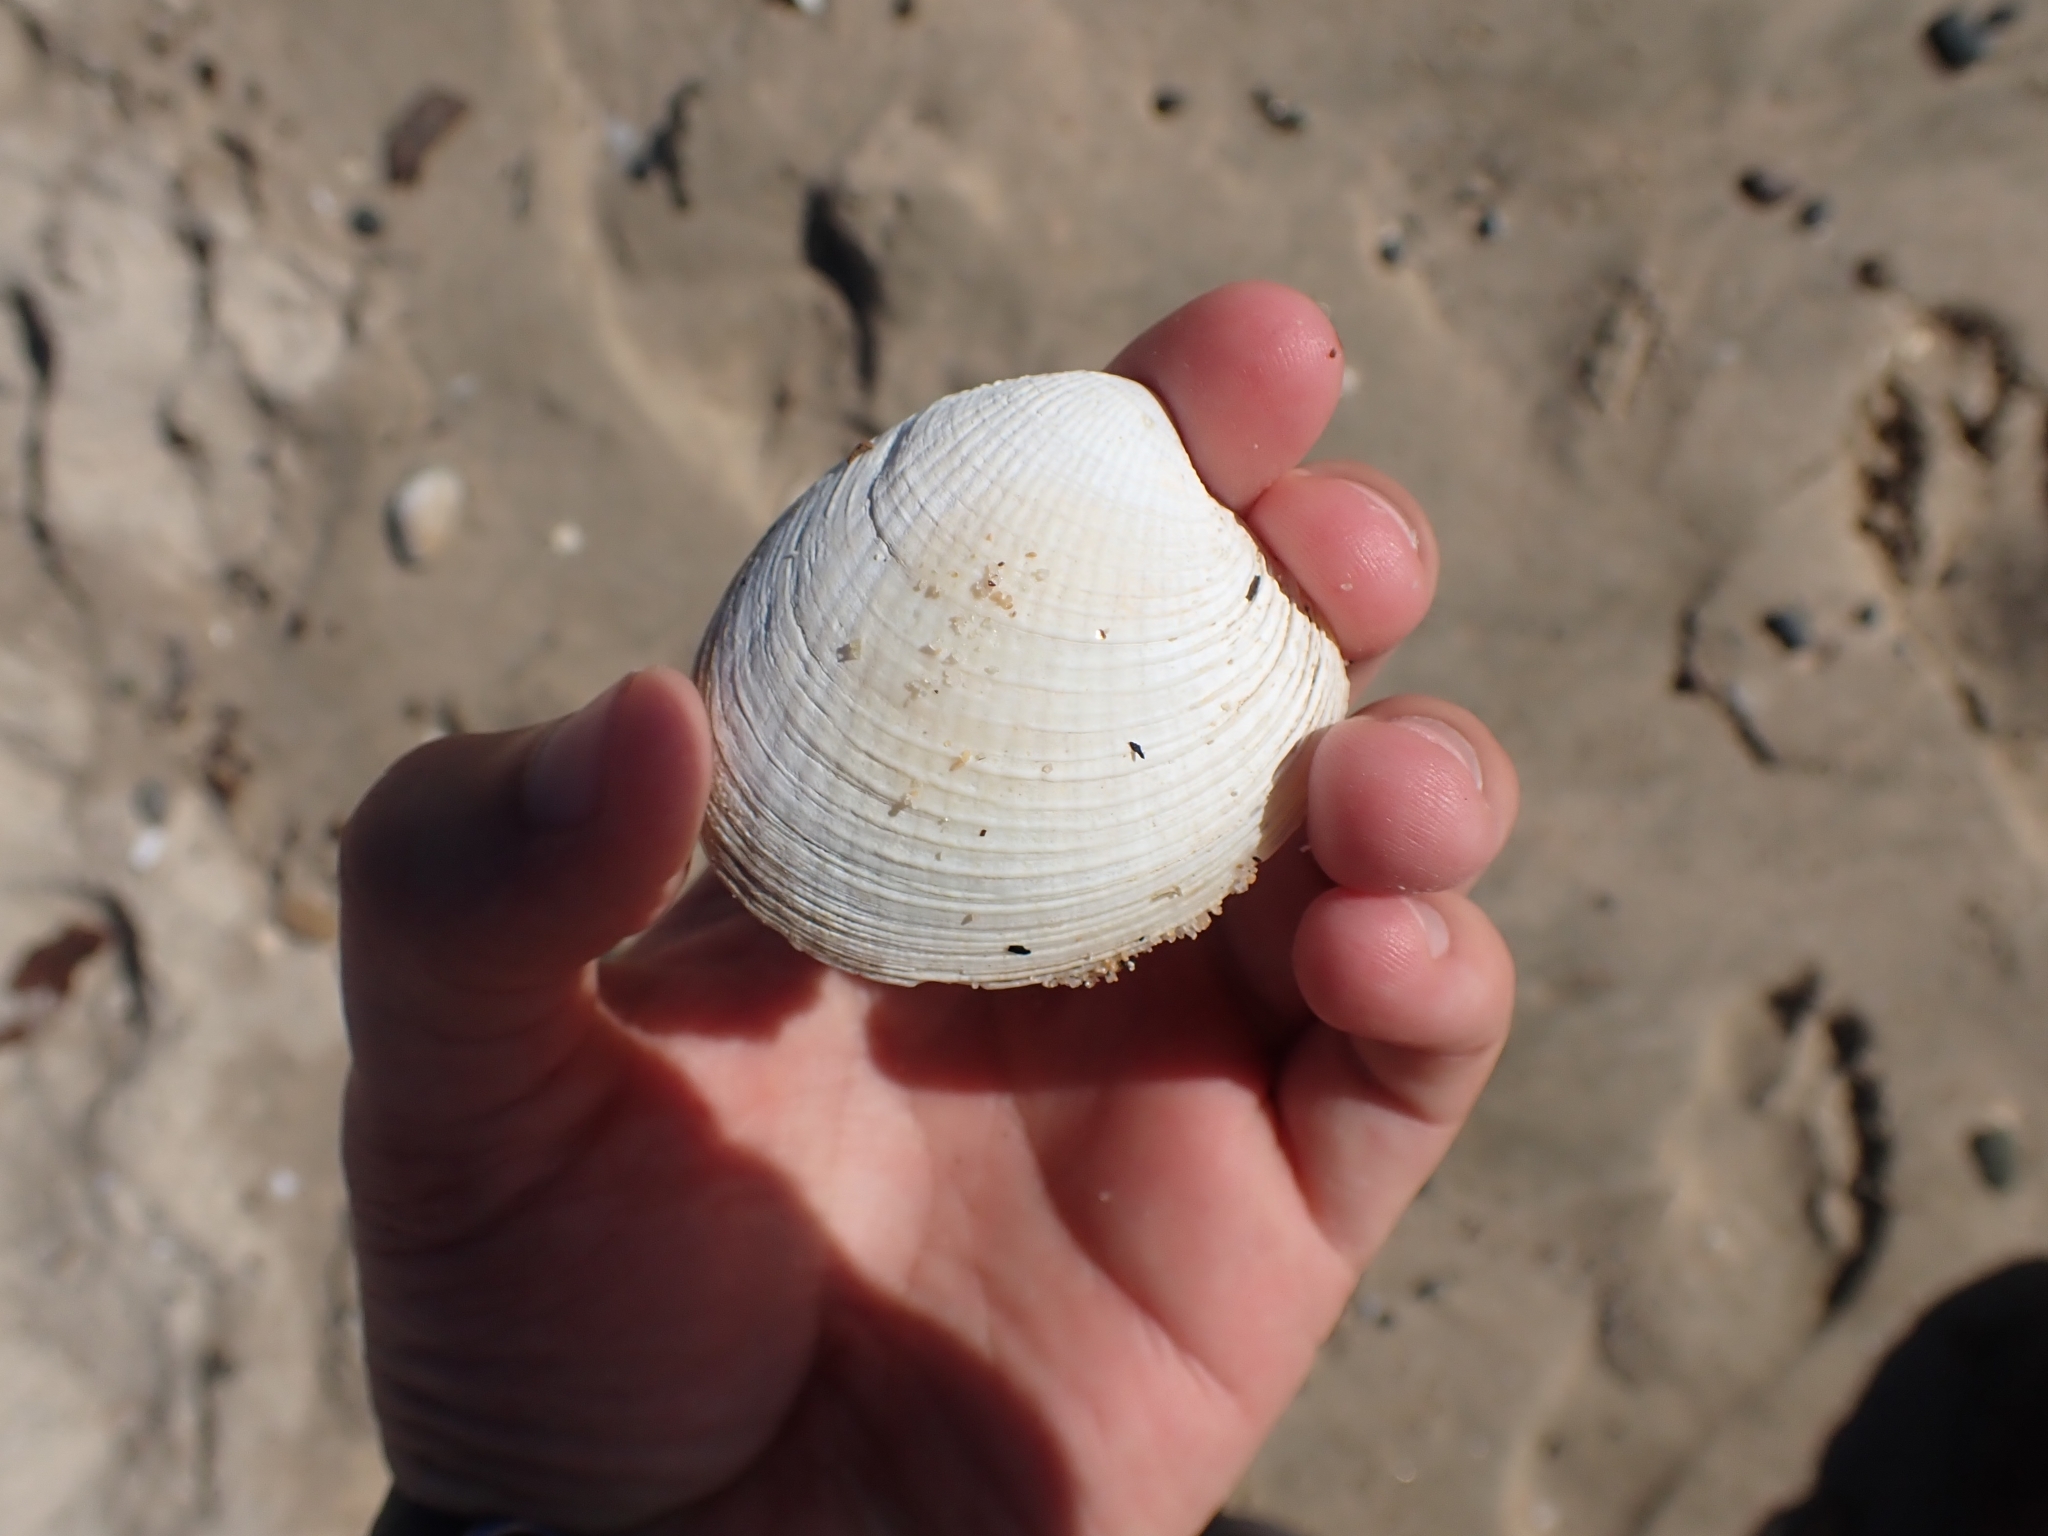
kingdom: Animalia
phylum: Mollusca
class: Bivalvia
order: Venerida
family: Veneridae
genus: Austrovenus
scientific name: Austrovenus stutchburyi
